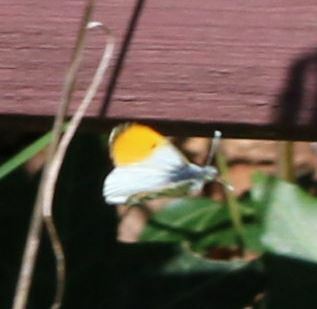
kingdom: Animalia
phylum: Arthropoda
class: Insecta
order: Lepidoptera
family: Pieridae
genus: Anthocharis
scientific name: Anthocharis cardamines
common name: Orange-tip
